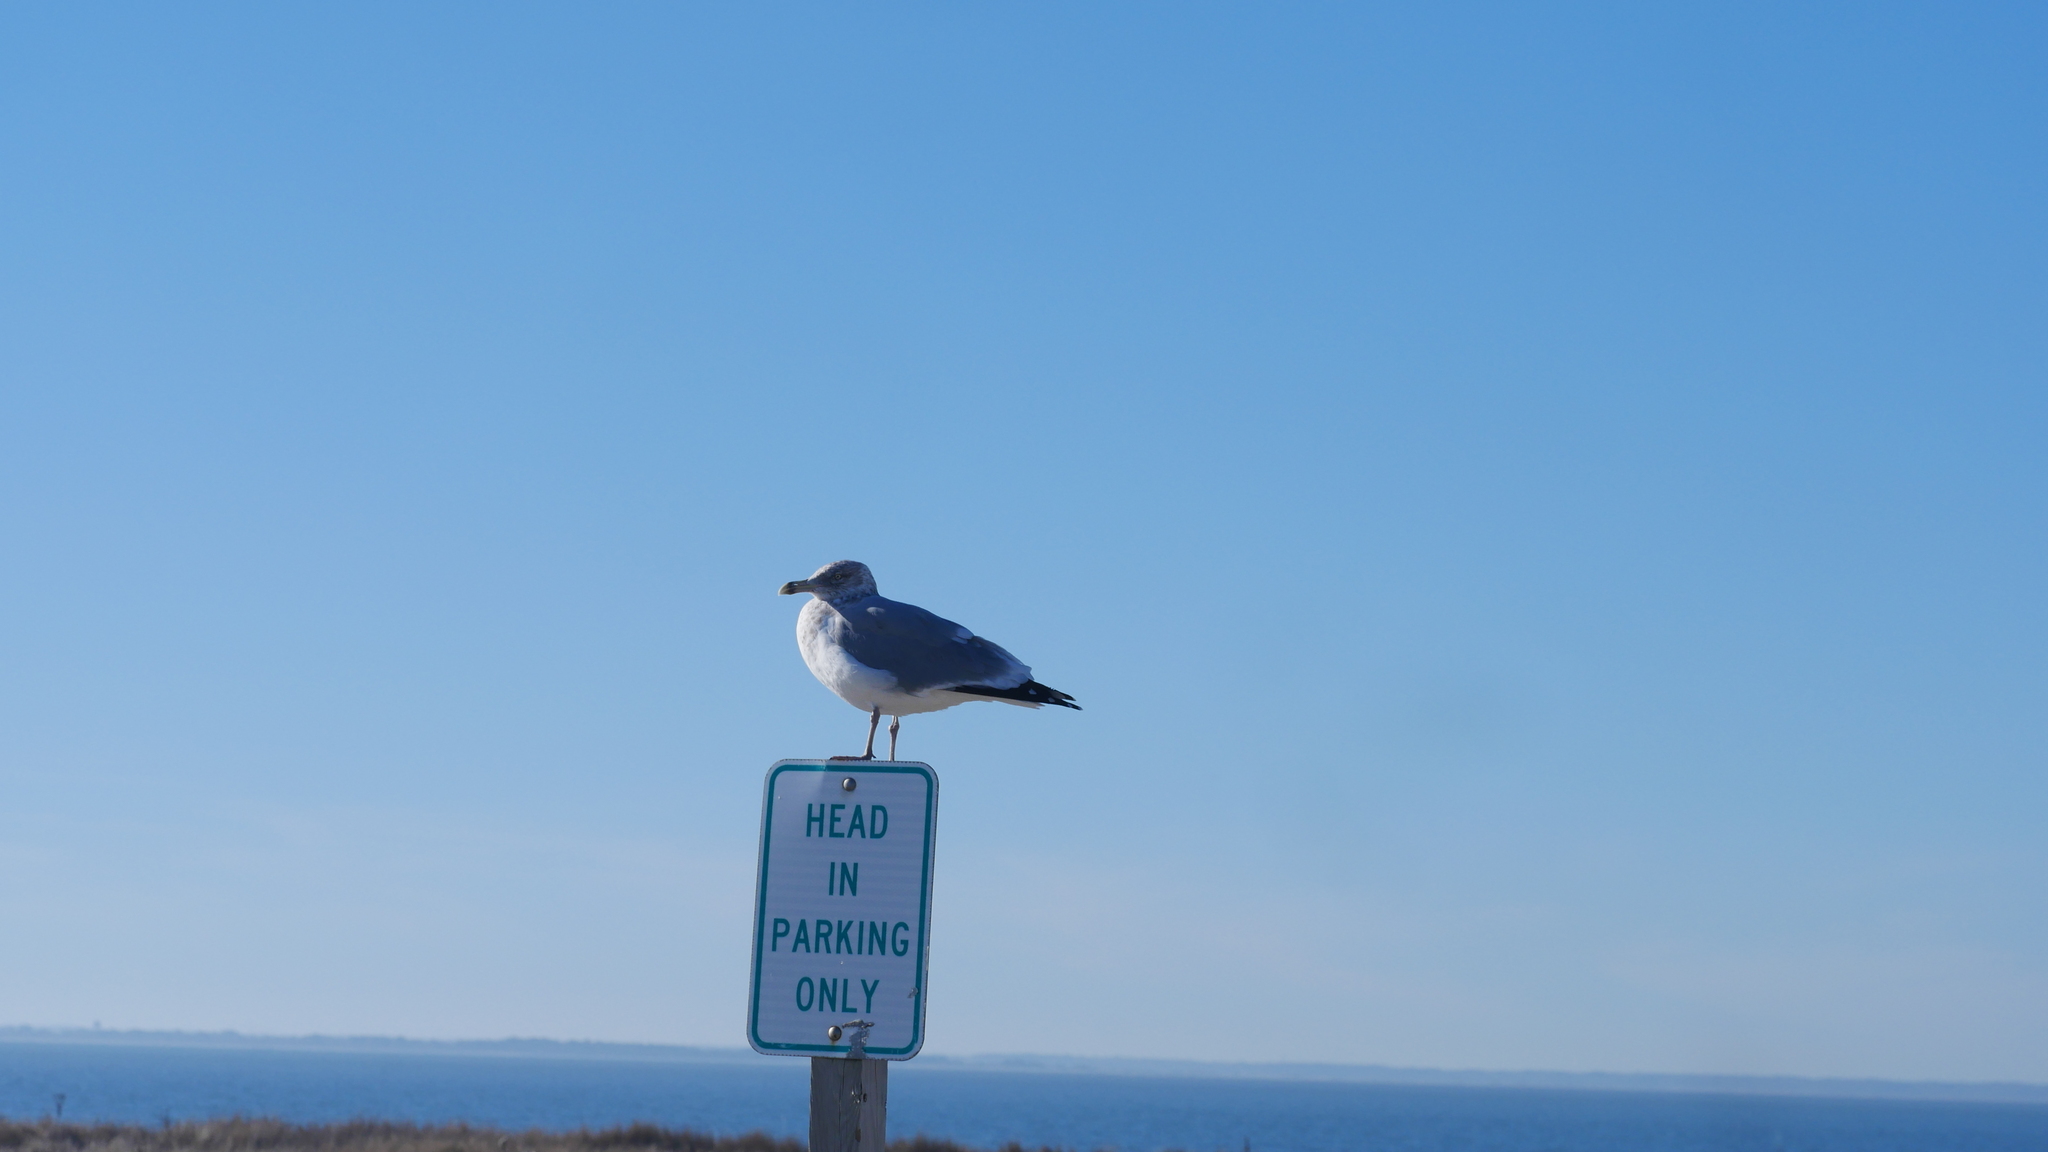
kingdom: Animalia
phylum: Chordata
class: Aves
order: Charadriiformes
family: Laridae
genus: Larus
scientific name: Larus argentatus
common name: Herring gull
